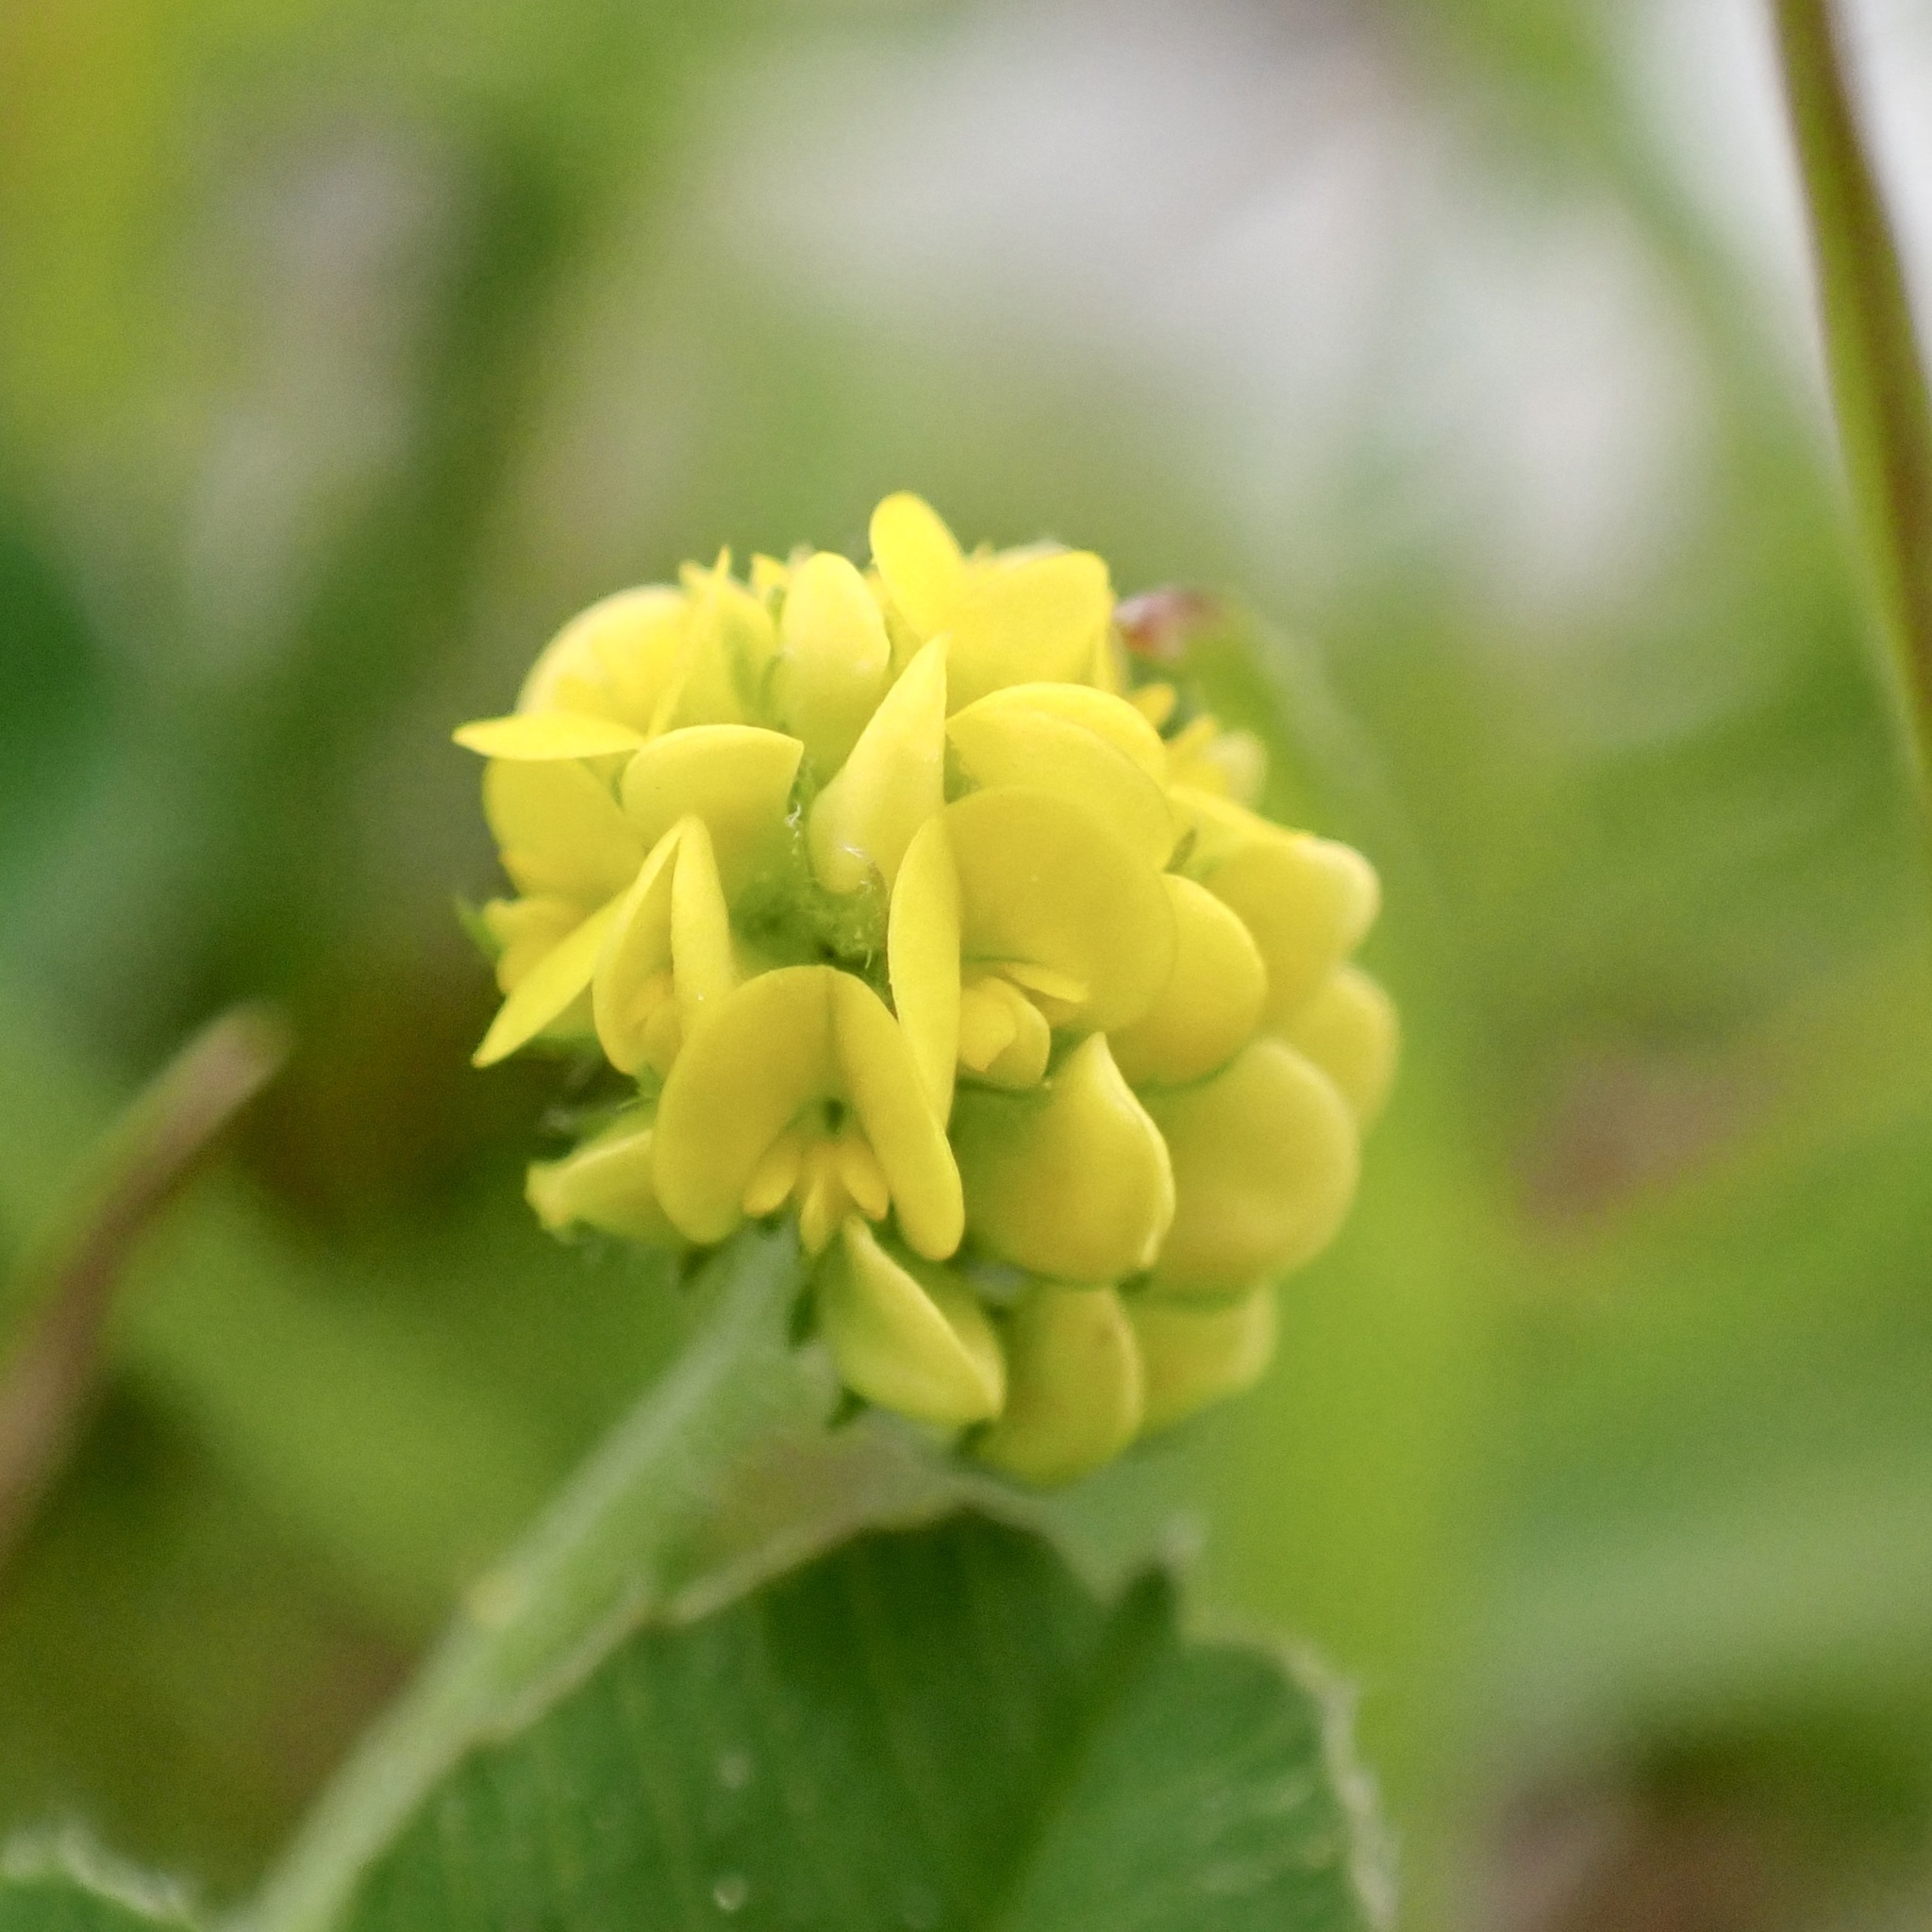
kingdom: Plantae
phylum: Tracheophyta
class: Magnoliopsida
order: Fabales
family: Fabaceae
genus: Medicago
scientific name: Medicago lupulina
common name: Black medick
